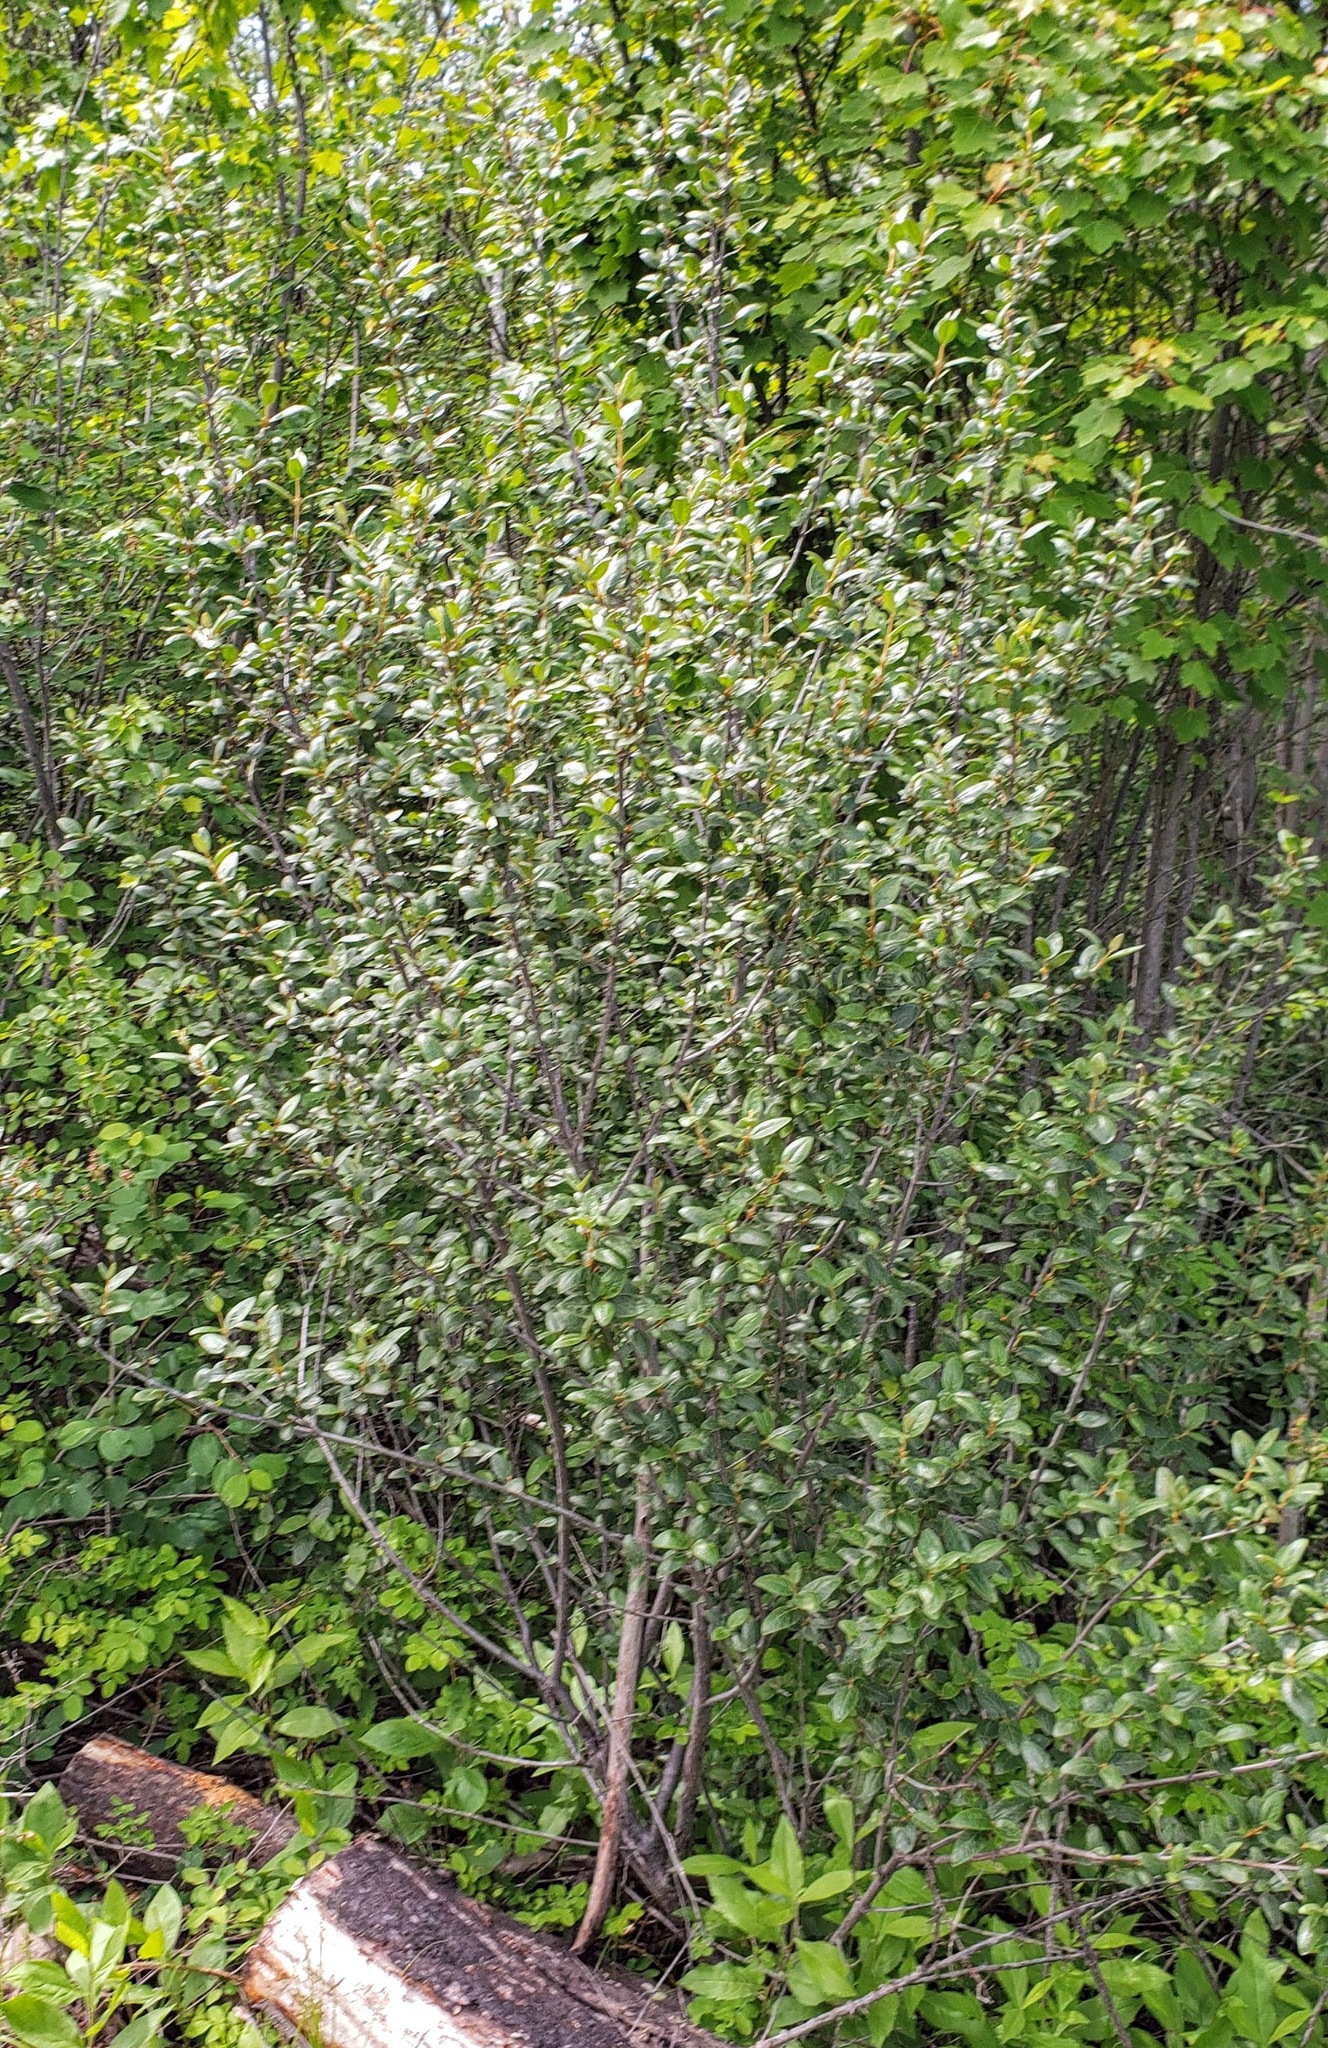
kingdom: Plantae
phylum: Tracheophyta
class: Magnoliopsida
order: Rosales
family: Elaeagnaceae
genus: Shepherdia
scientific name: Shepherdia canadensis
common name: Soapberry
